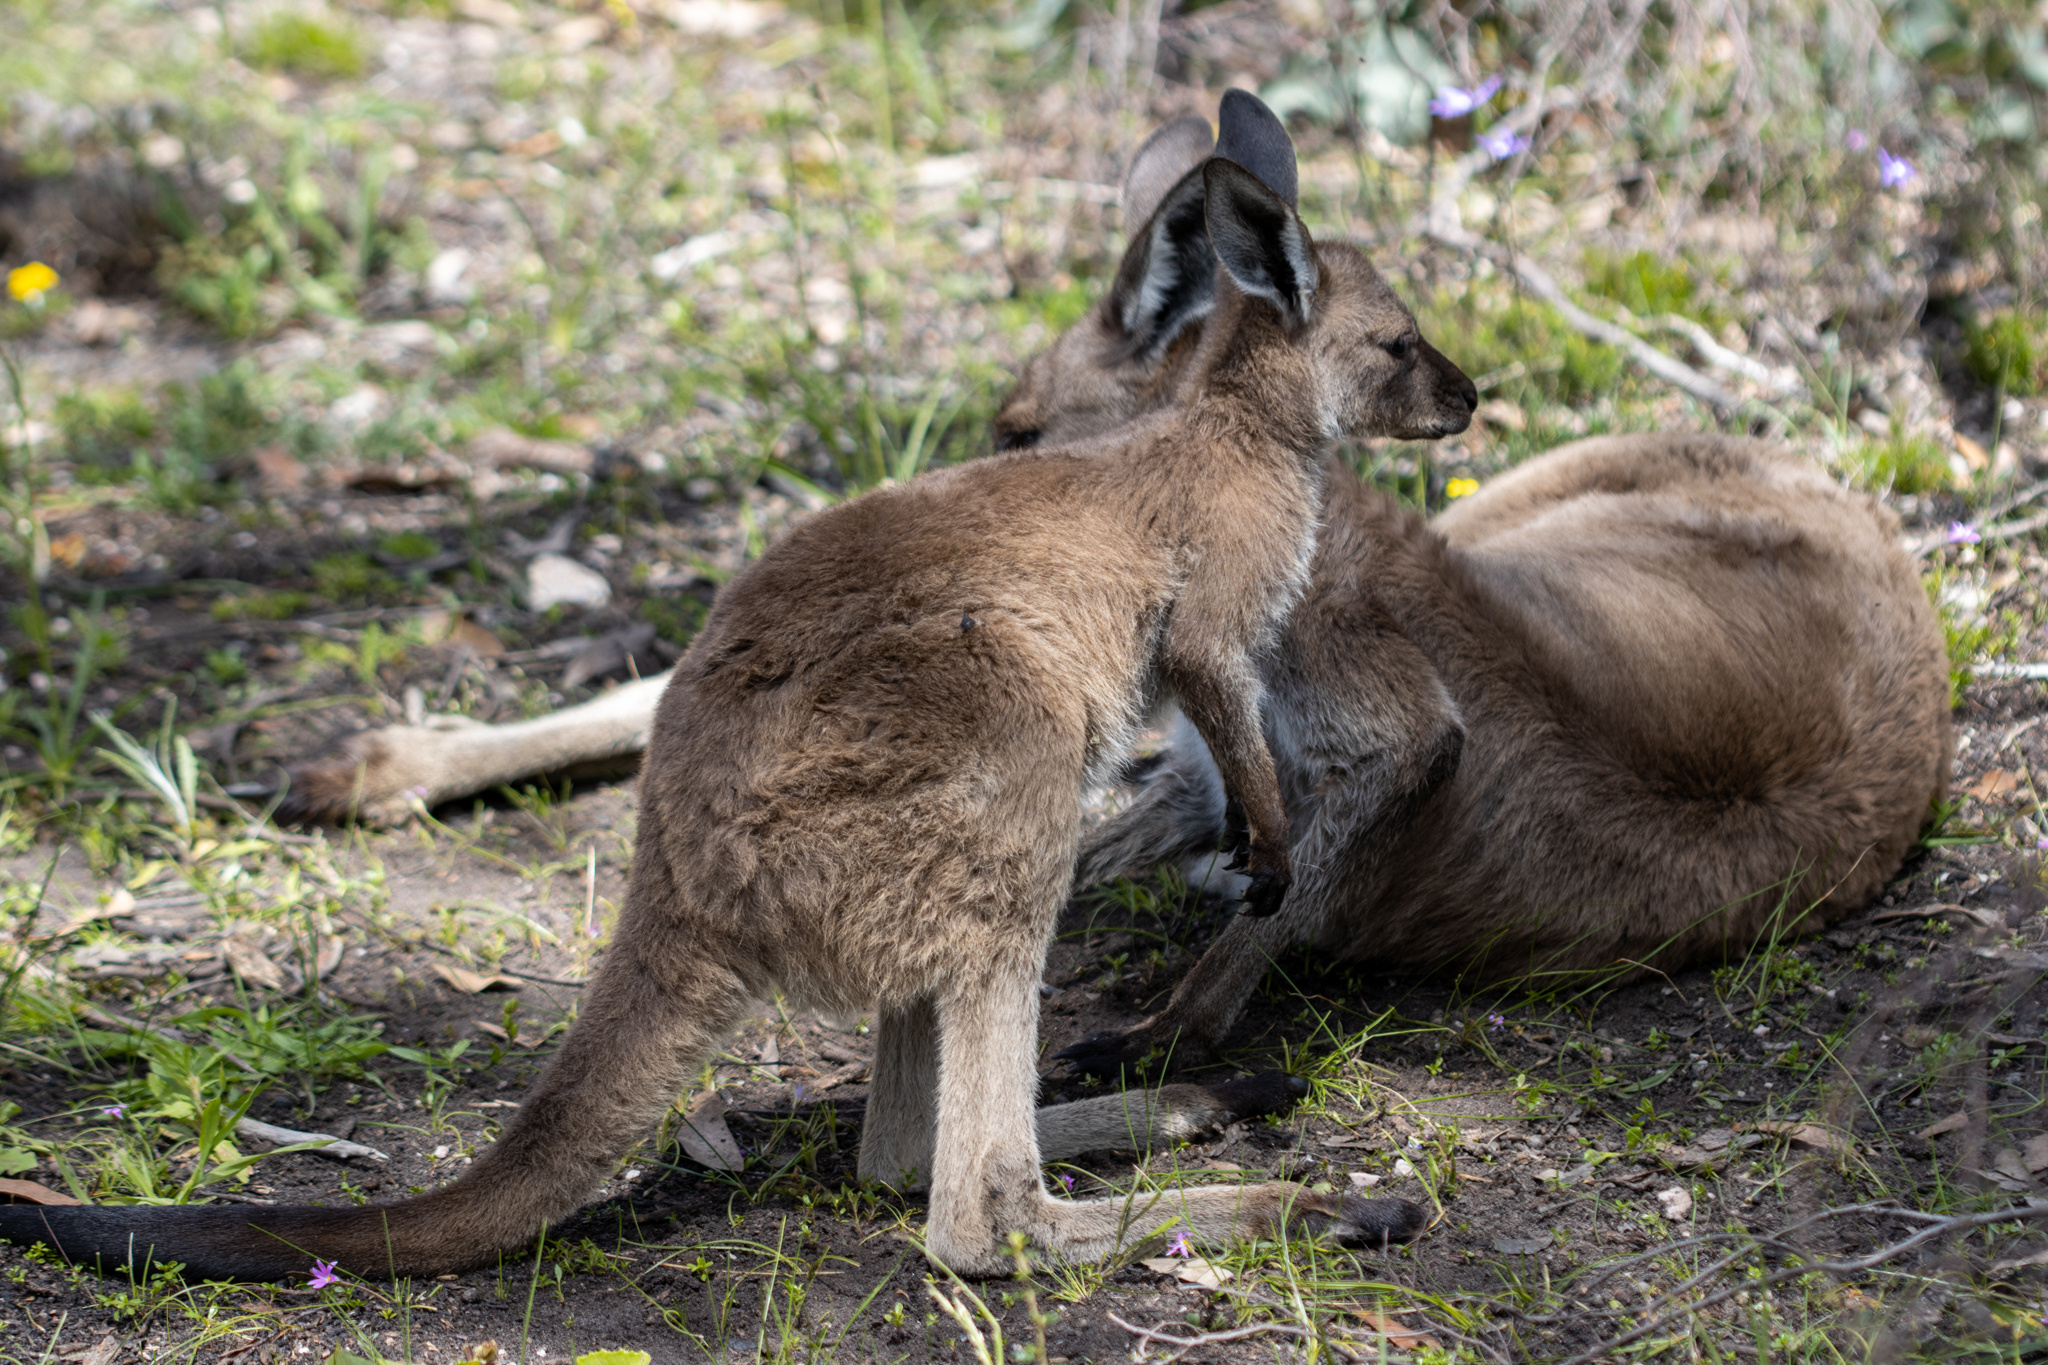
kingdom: Animalia
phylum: Chordata
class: Mammalia
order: Diprotodontia
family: Macropodidae
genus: Macropus
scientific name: Macropus fuliginosus
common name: Western grey kangaroo
